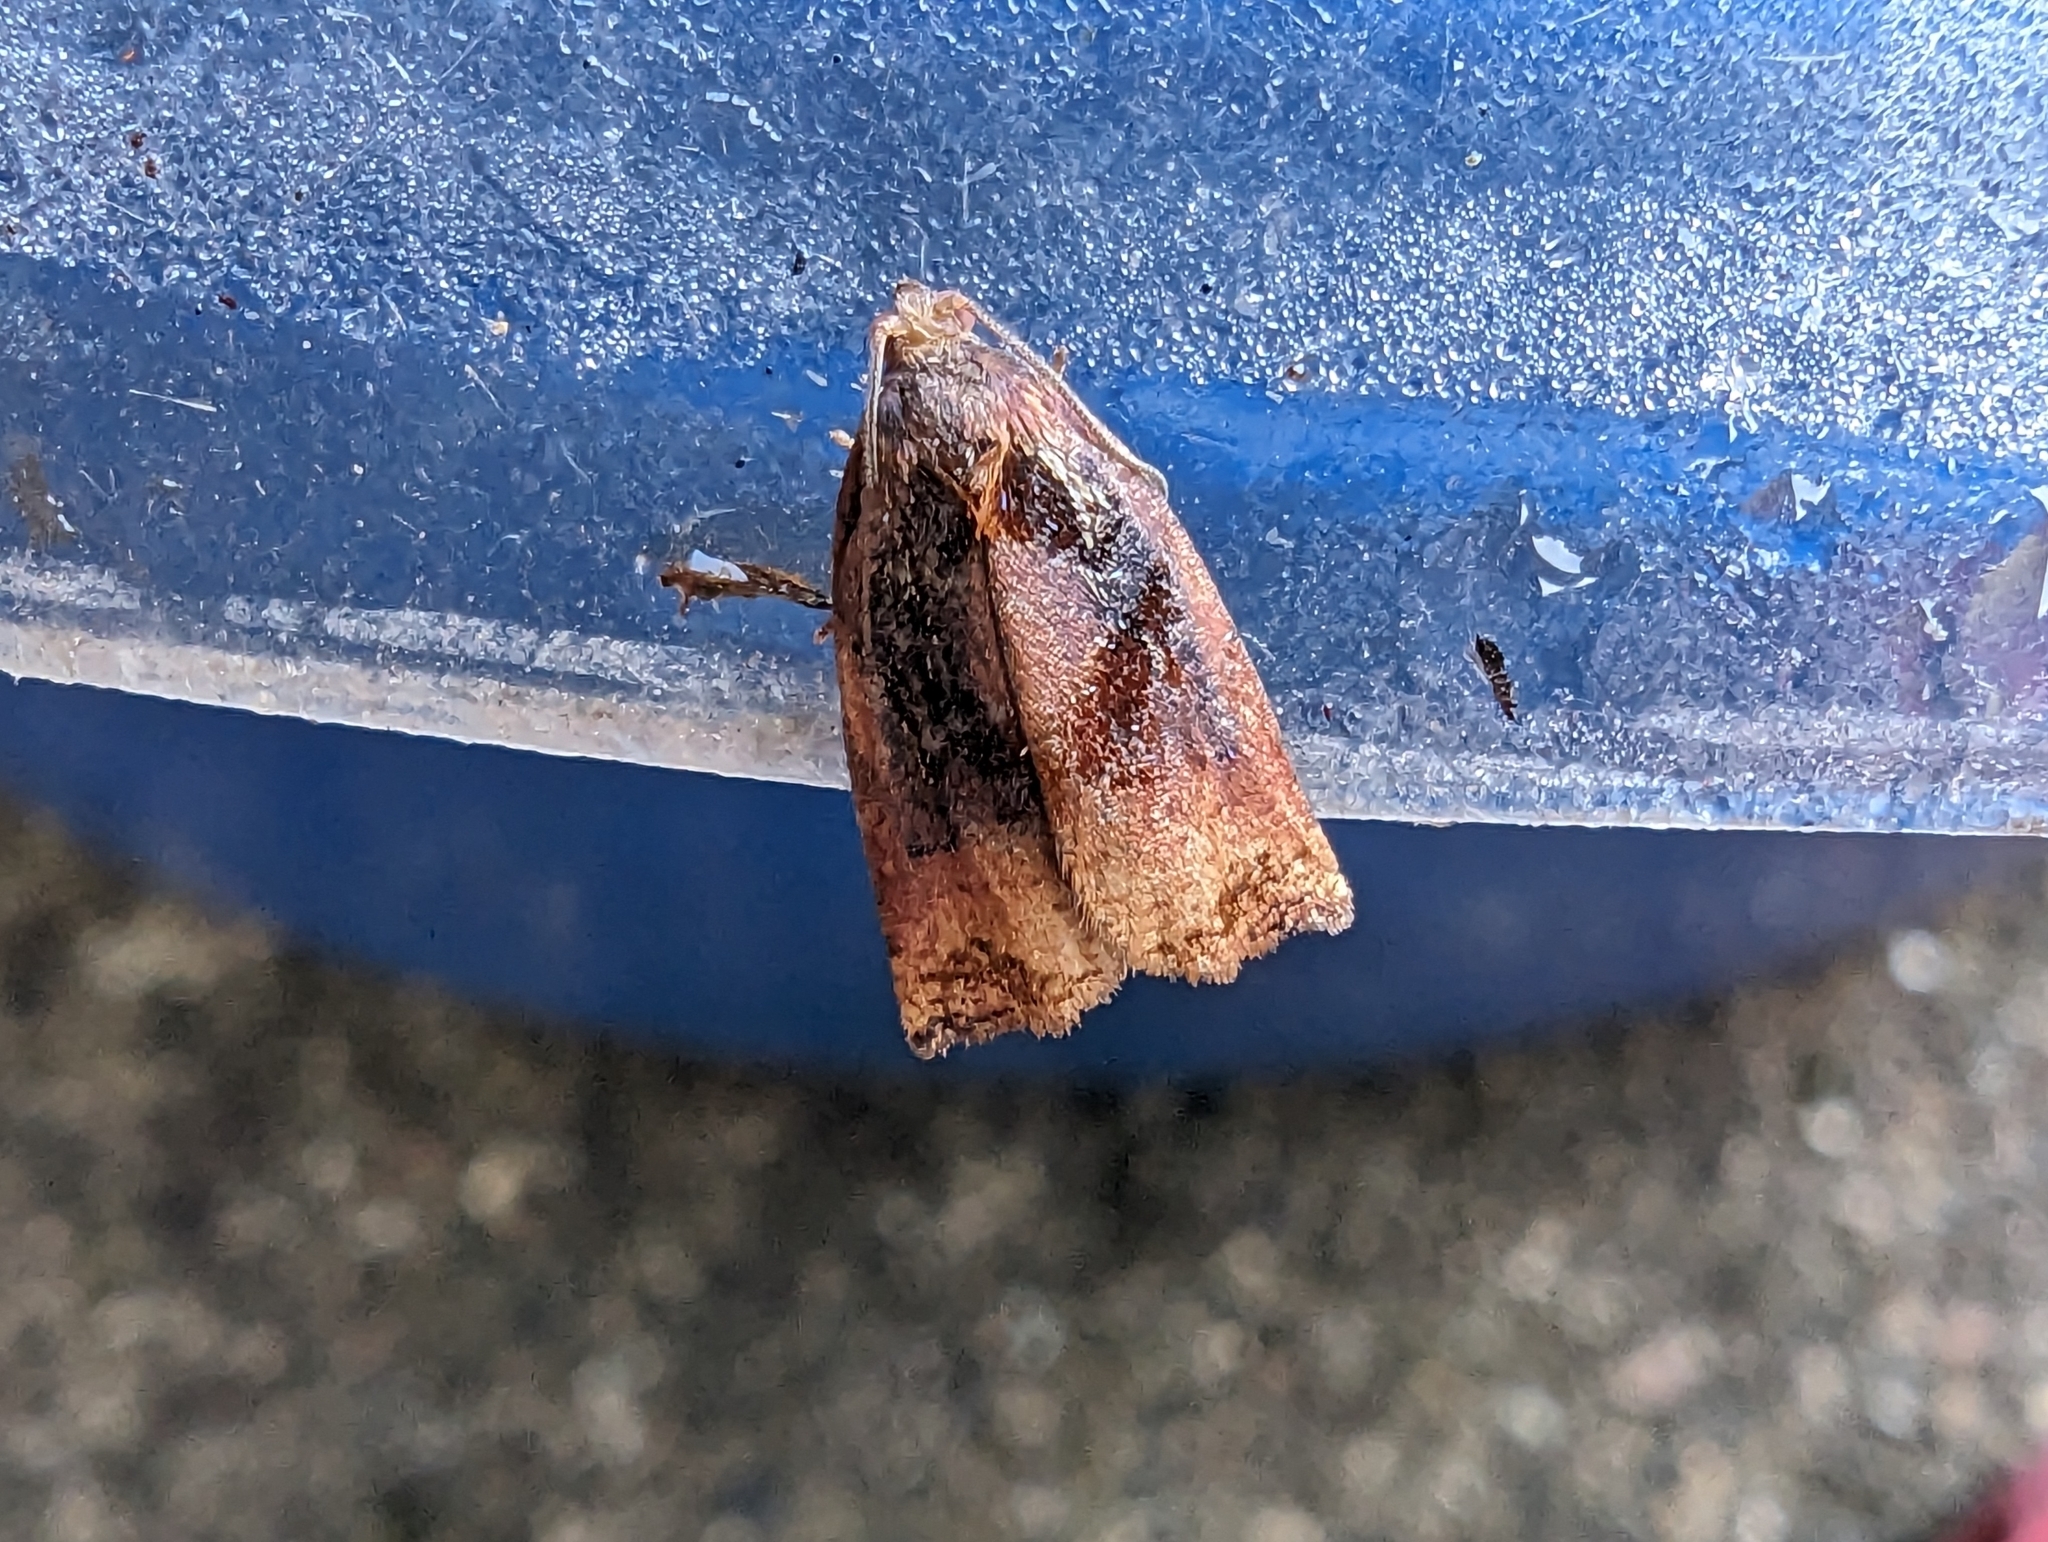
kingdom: Animalia
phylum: Arthropoda
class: Insecta
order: Lepidoptera
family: Tortricidae
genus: Archips
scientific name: Archips podana
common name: Large fruit-tree tortrix
